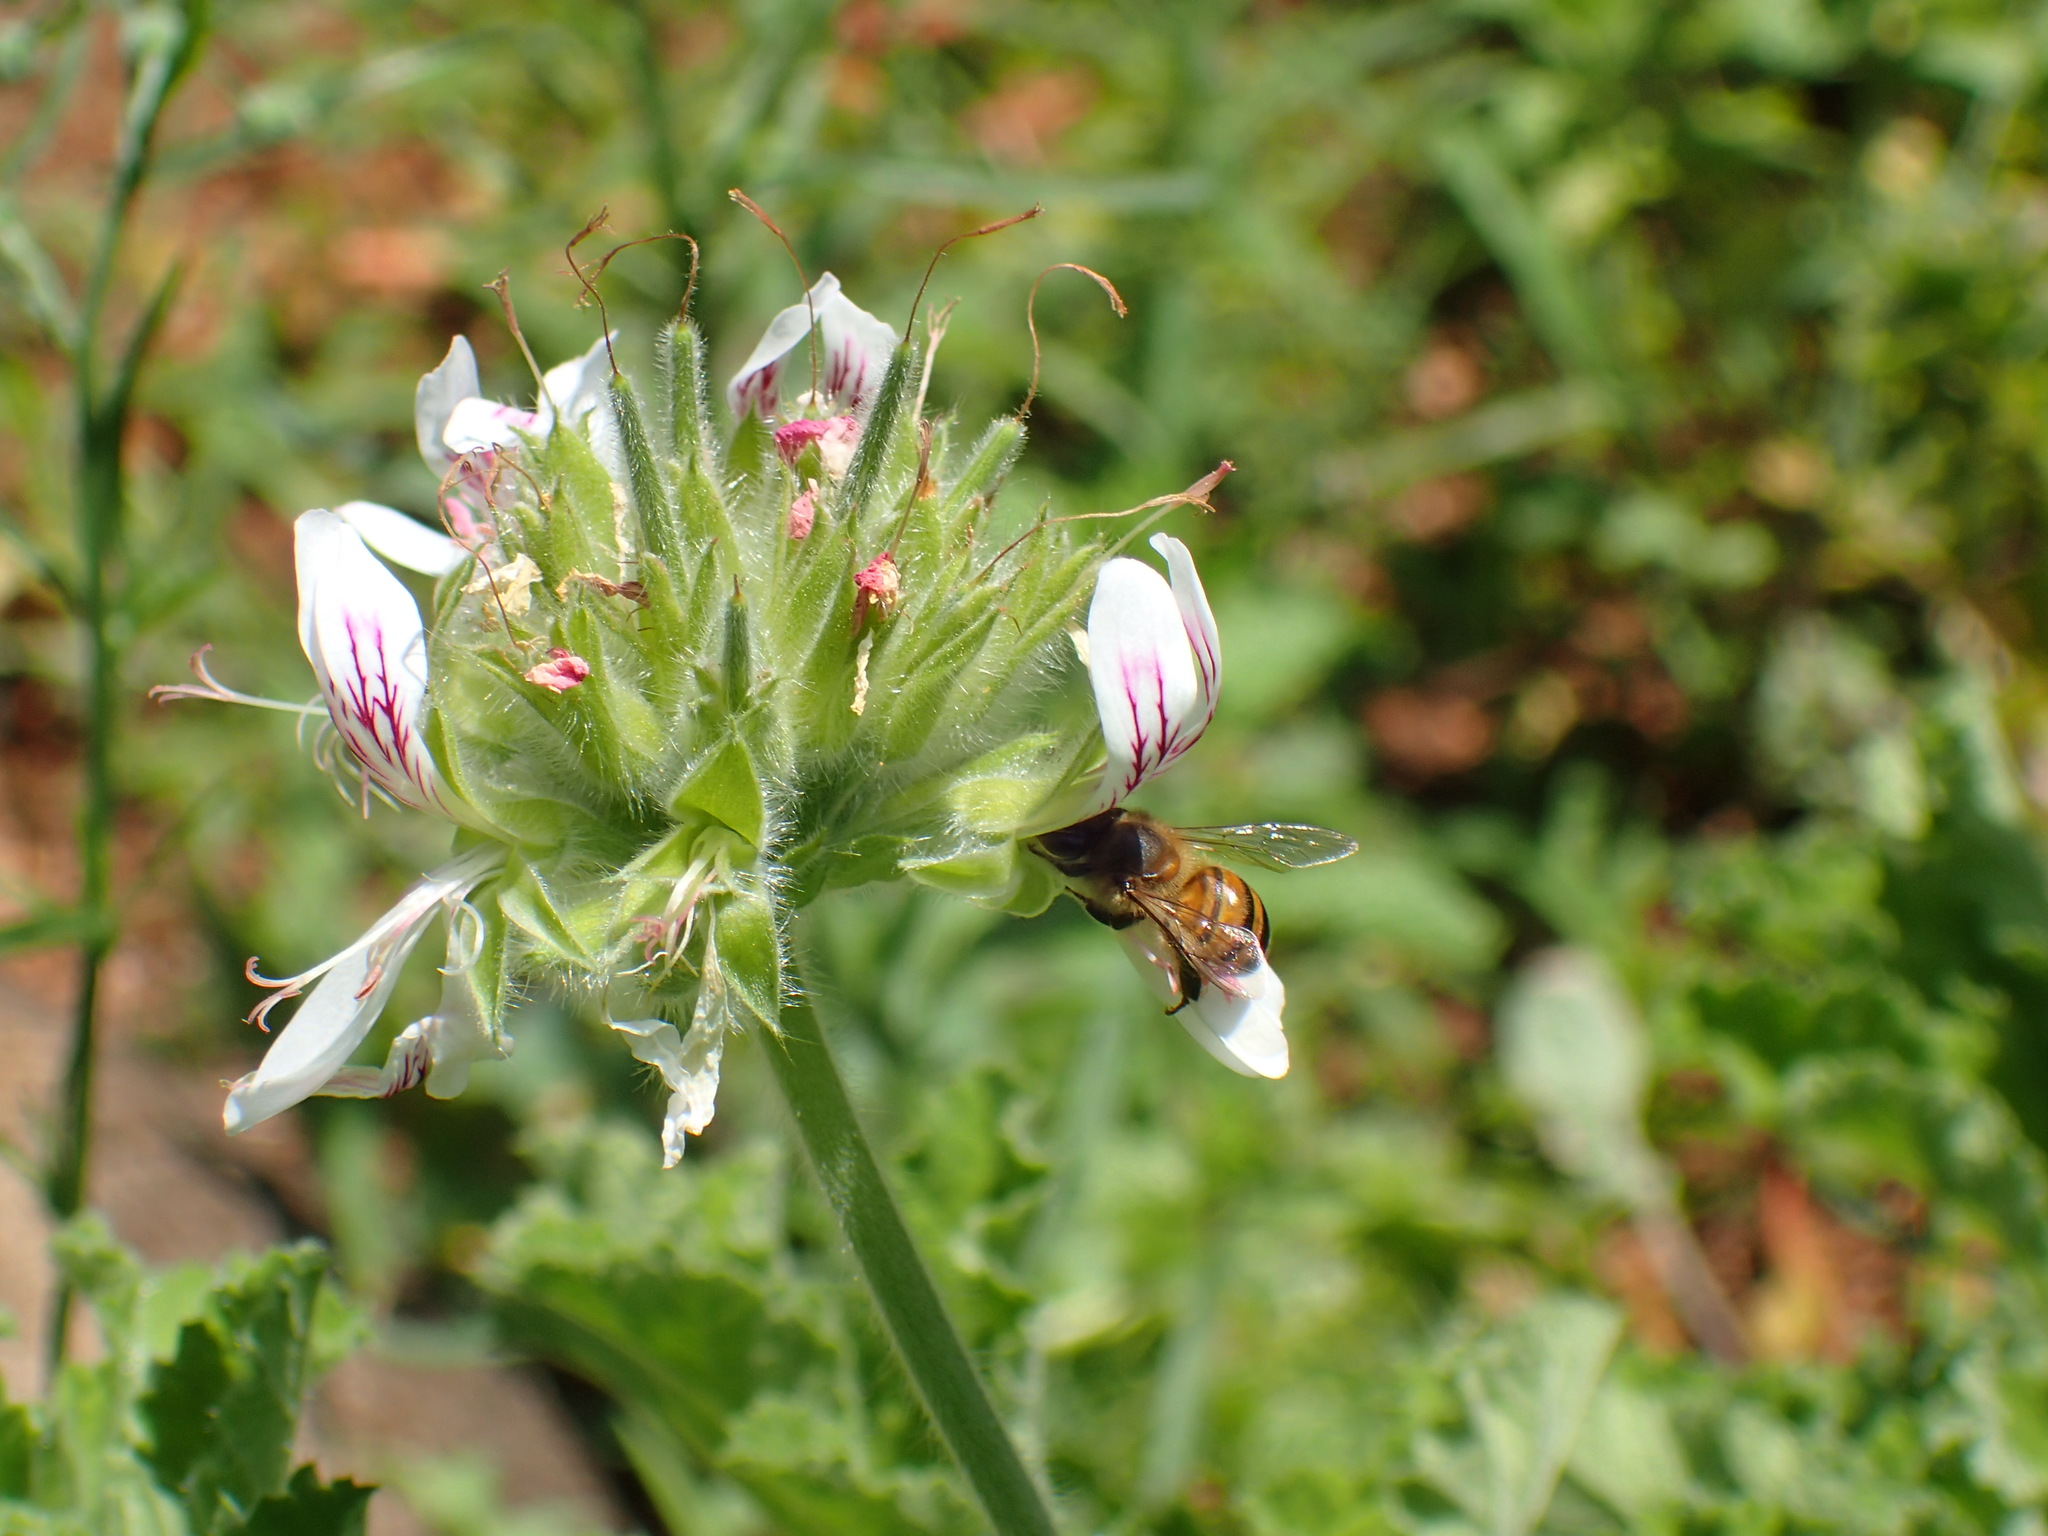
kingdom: Animalia
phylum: Arthropoda
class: Insecta
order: Hymenoptera
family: Apidae
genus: Apis
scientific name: Apis mellifera
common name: Honey bee
